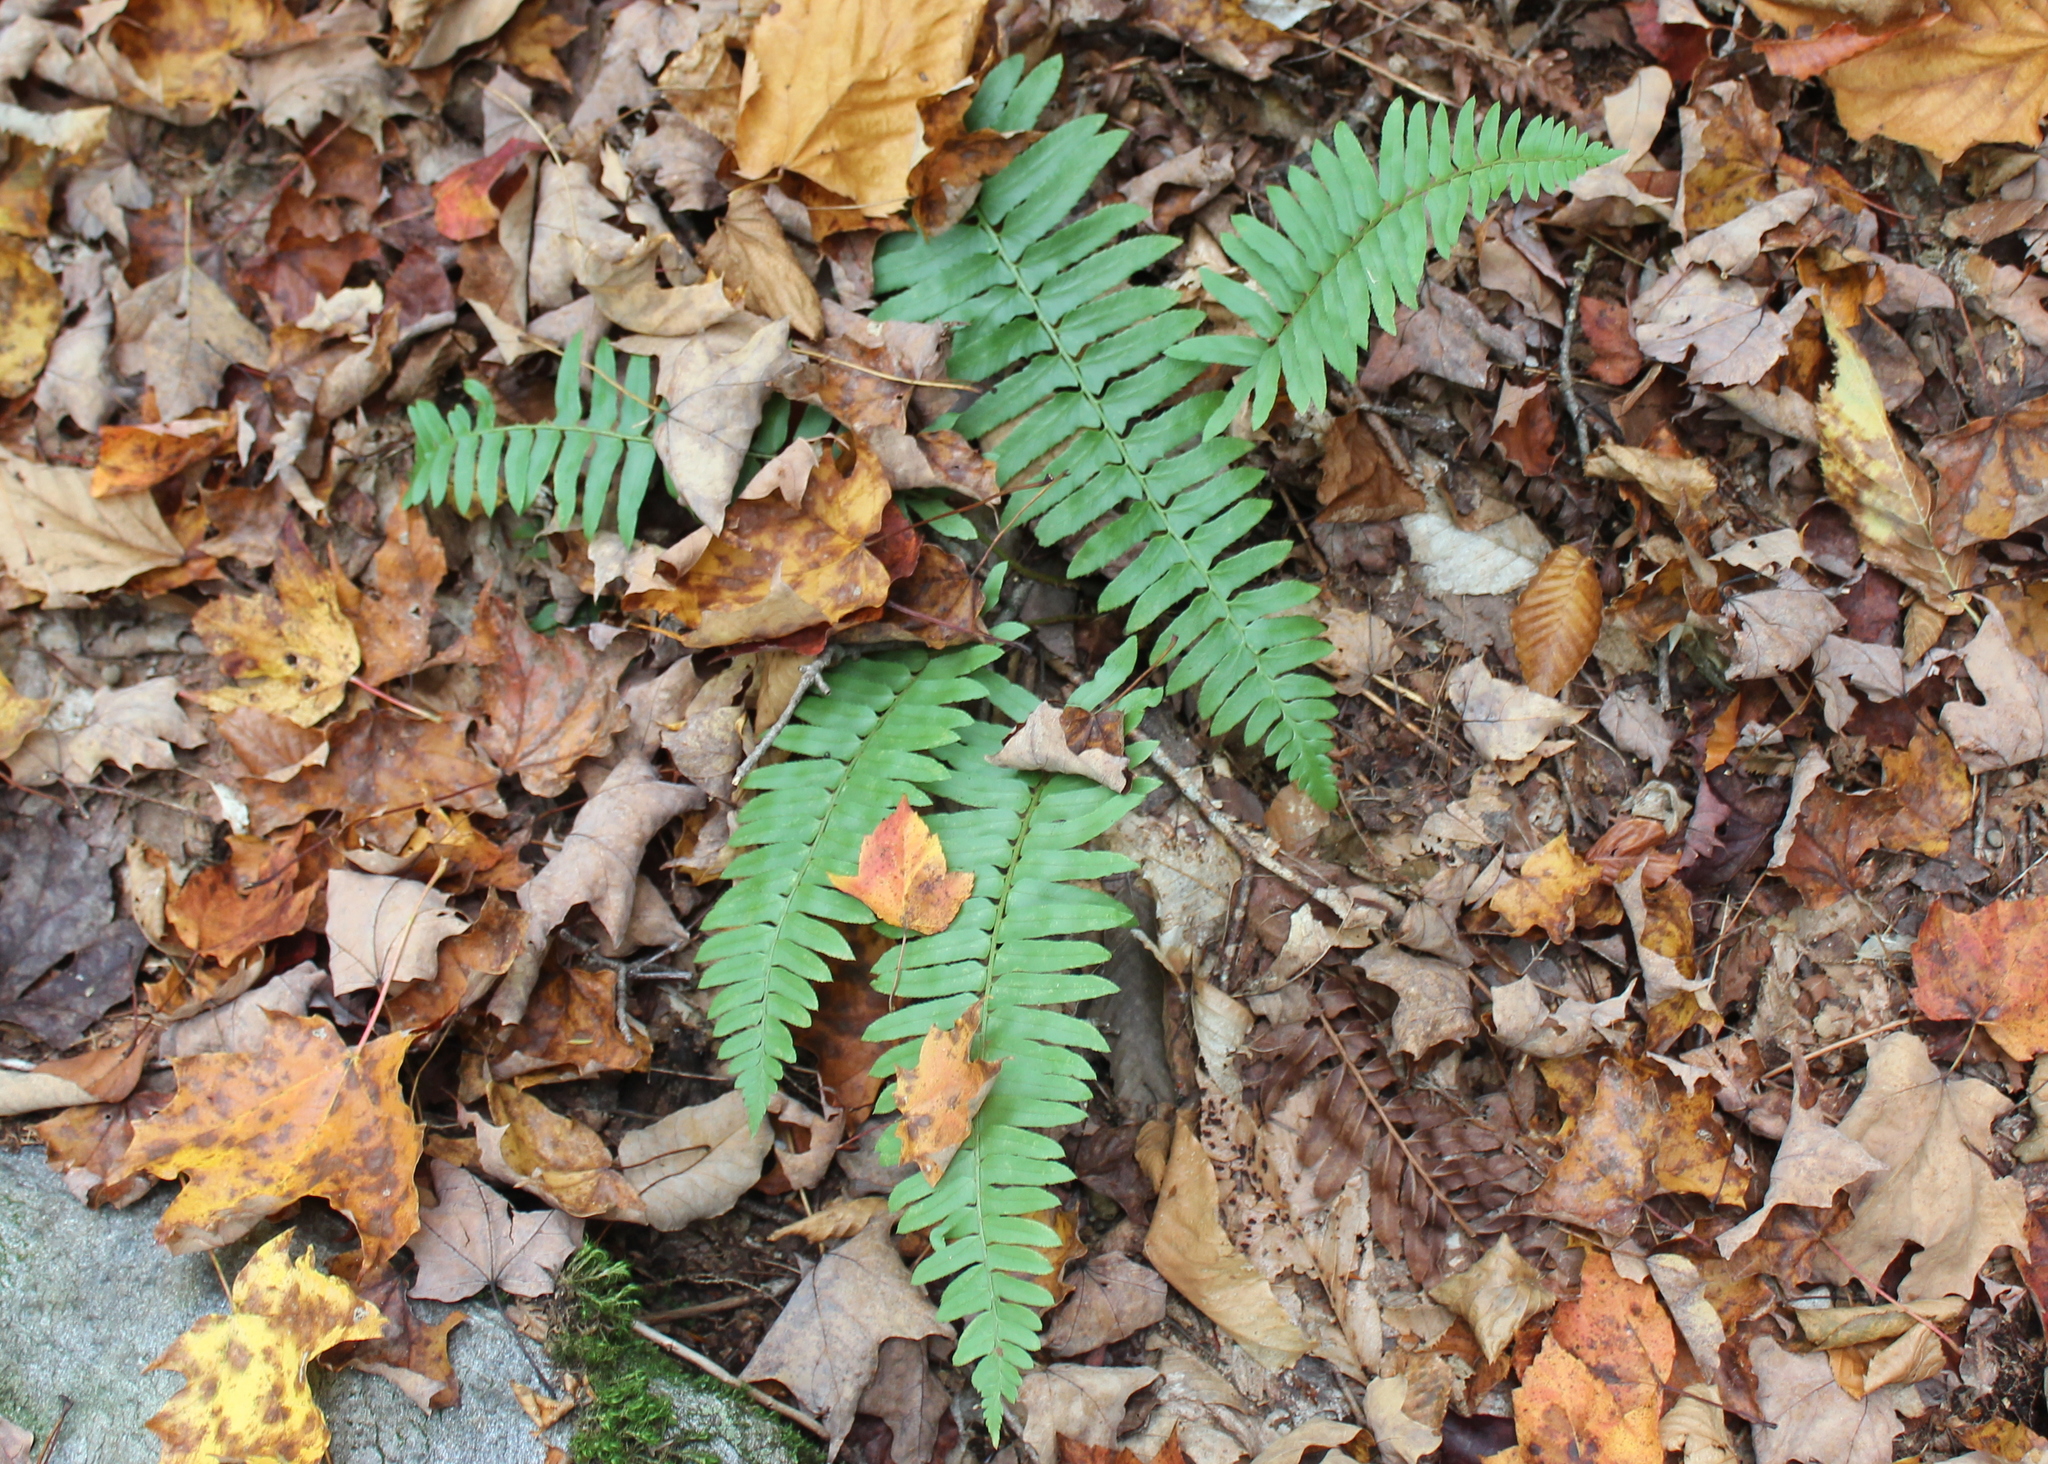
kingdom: Plantae
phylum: Tracheophyta
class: Polypodiopsida
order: Polypodiales
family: Dryopteridaceae
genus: Polystichum
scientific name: Polystichum acrostichoides
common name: Christmas fern
